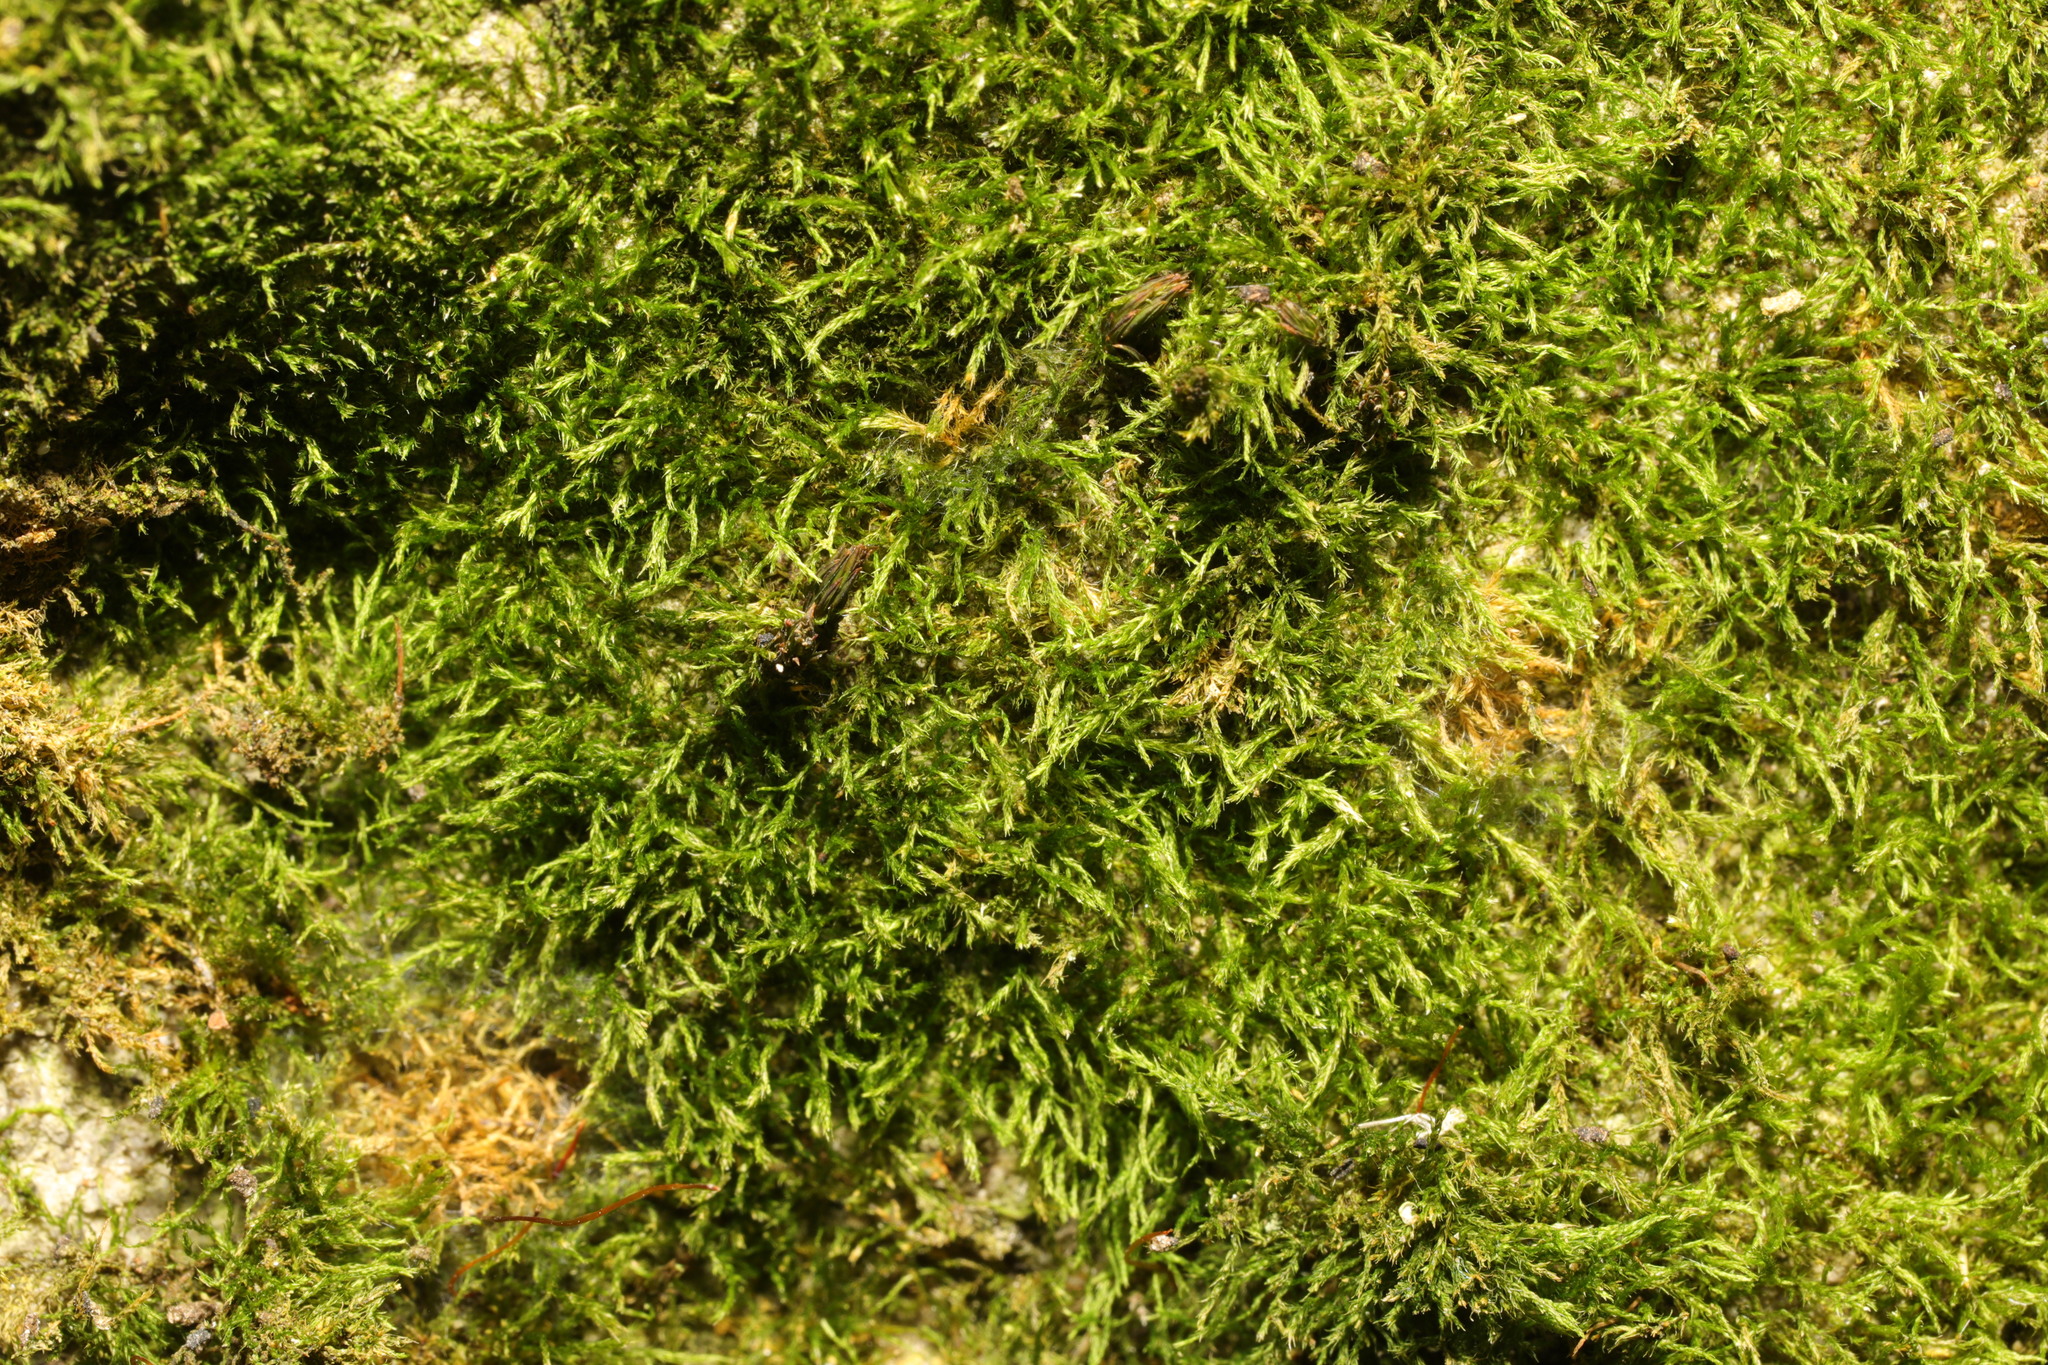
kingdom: Plantae
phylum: Bryophyta
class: Bryopsida
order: Hypnales
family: Amblystegiaceae
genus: Amblystegium
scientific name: Amblystegium serpens
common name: Jurkatzka's feather moss
